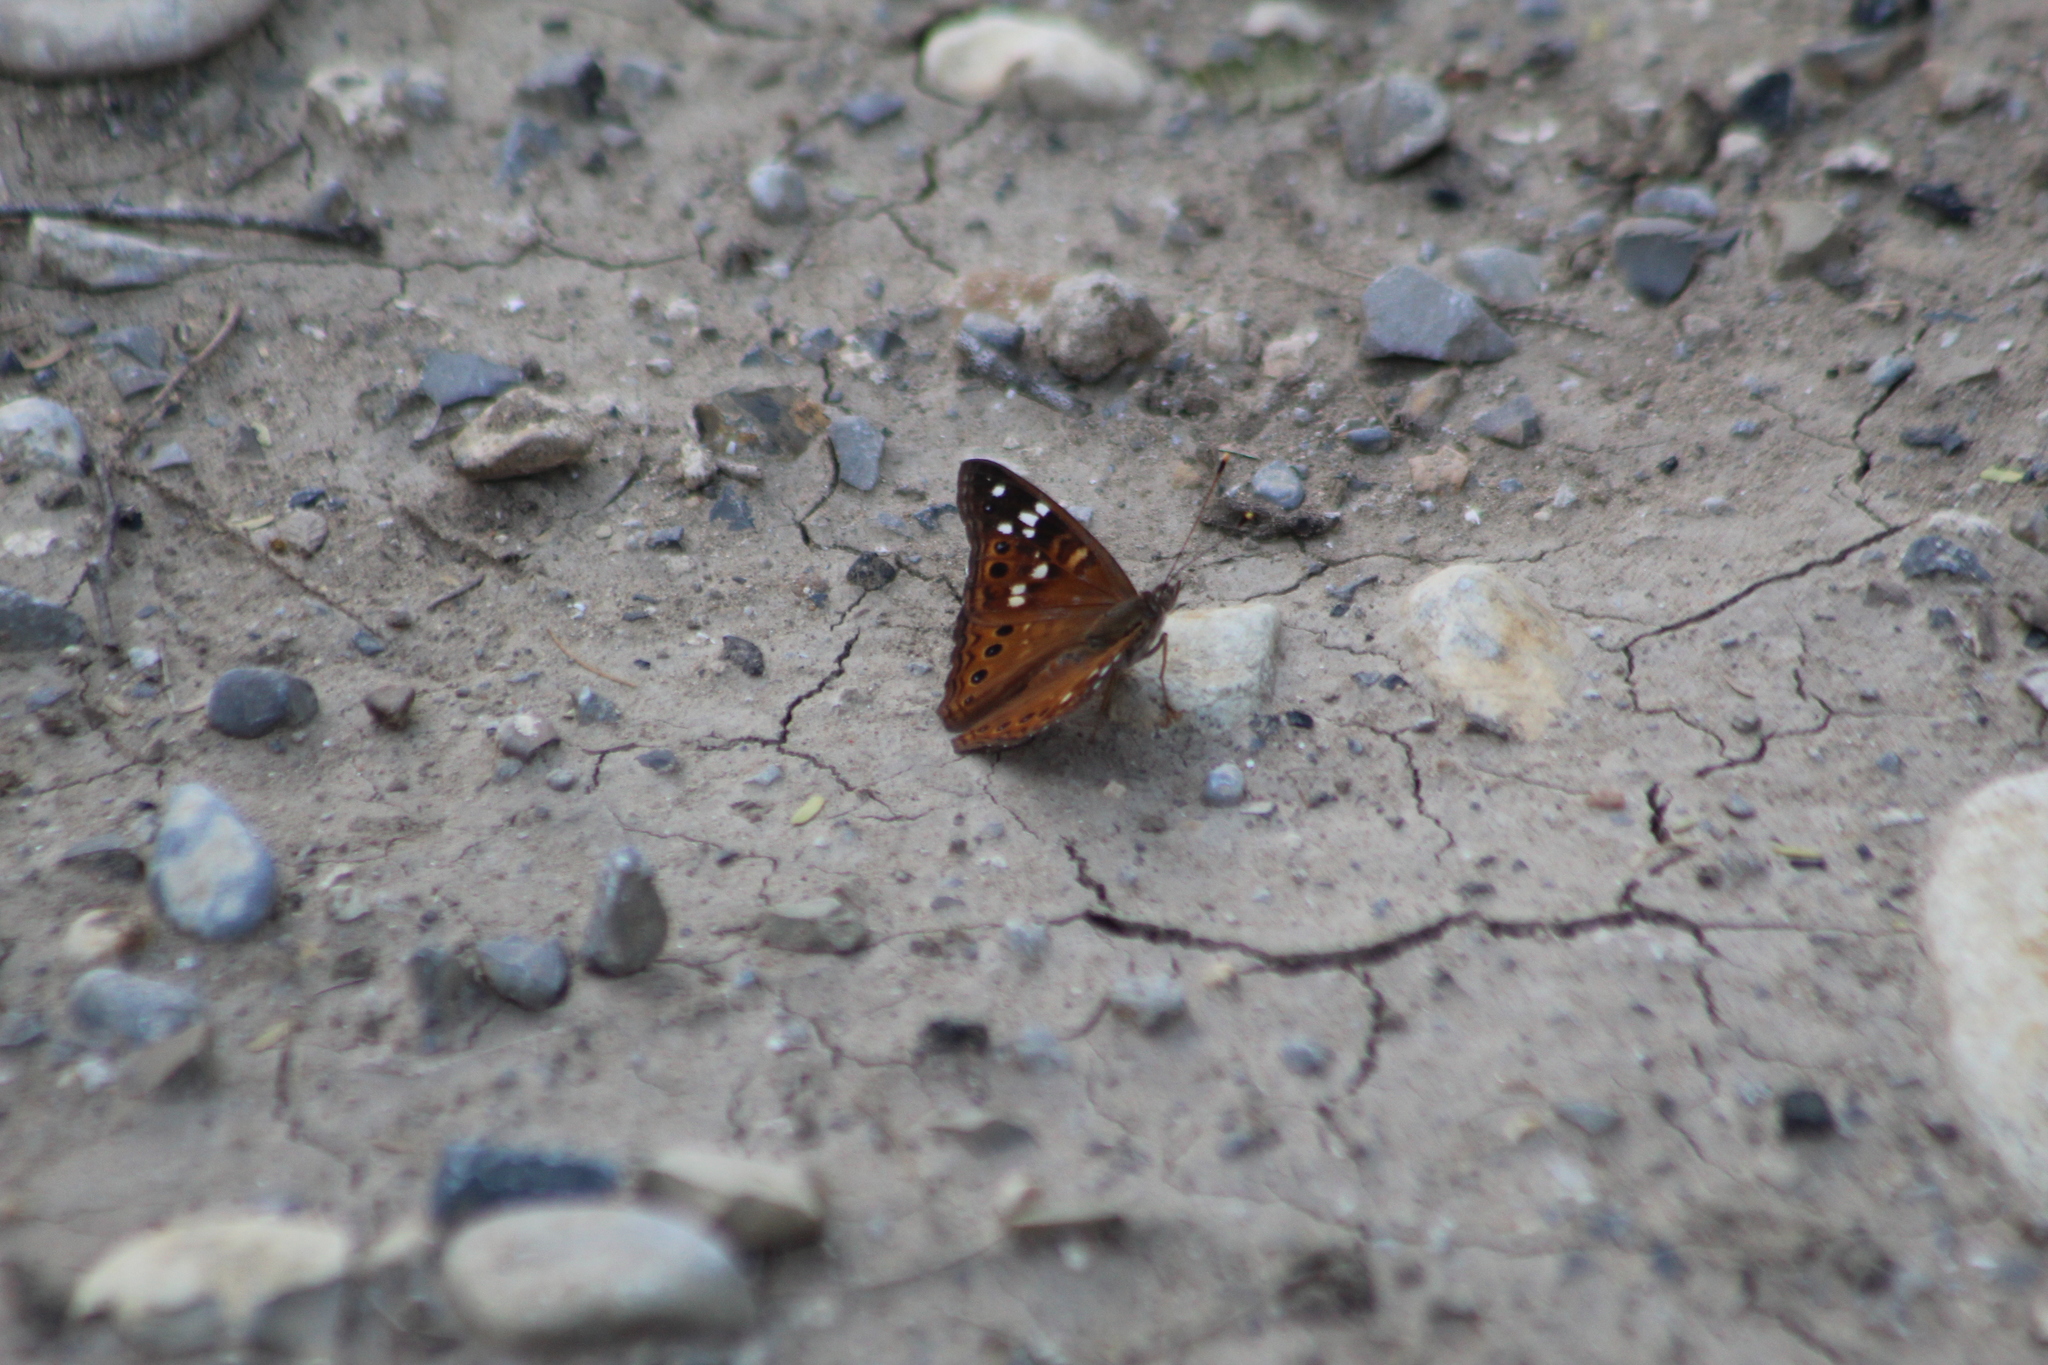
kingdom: Animalia
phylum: Arthropoda
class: Insecta
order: Lepidoptera
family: Nymphalidae
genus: Asterocampa
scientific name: Asterocampa leilia
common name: Empress leilia
